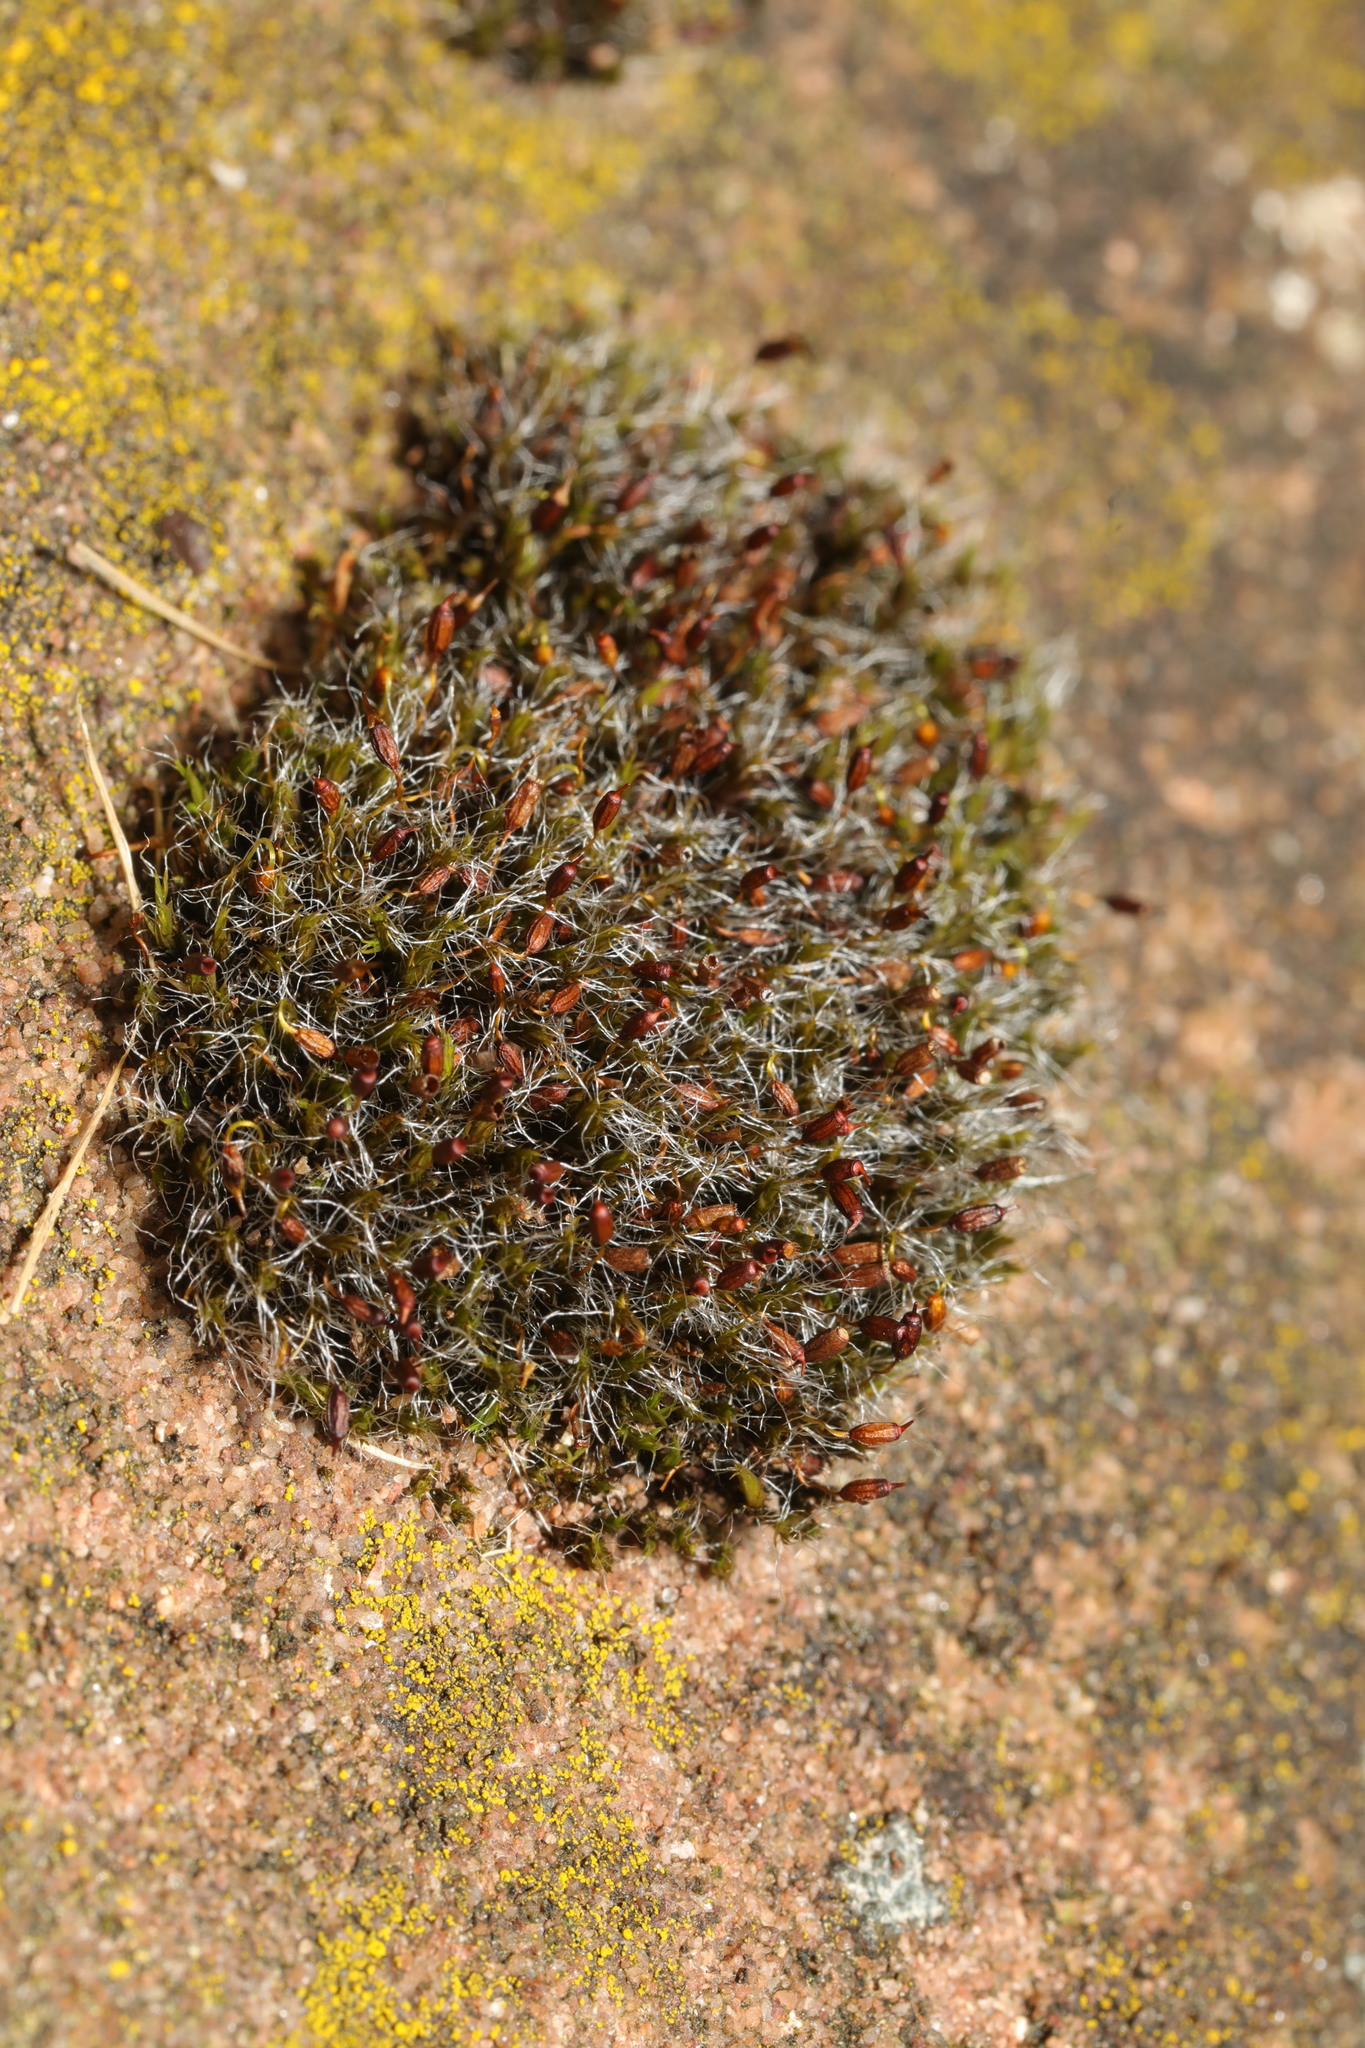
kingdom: Plantae
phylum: Bryophyta
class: Bryopsida
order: Grimmiales
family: Grimmiaceae
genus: Grimmia
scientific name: Grimmia pulvinata
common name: Grey-cushioned grimmia
